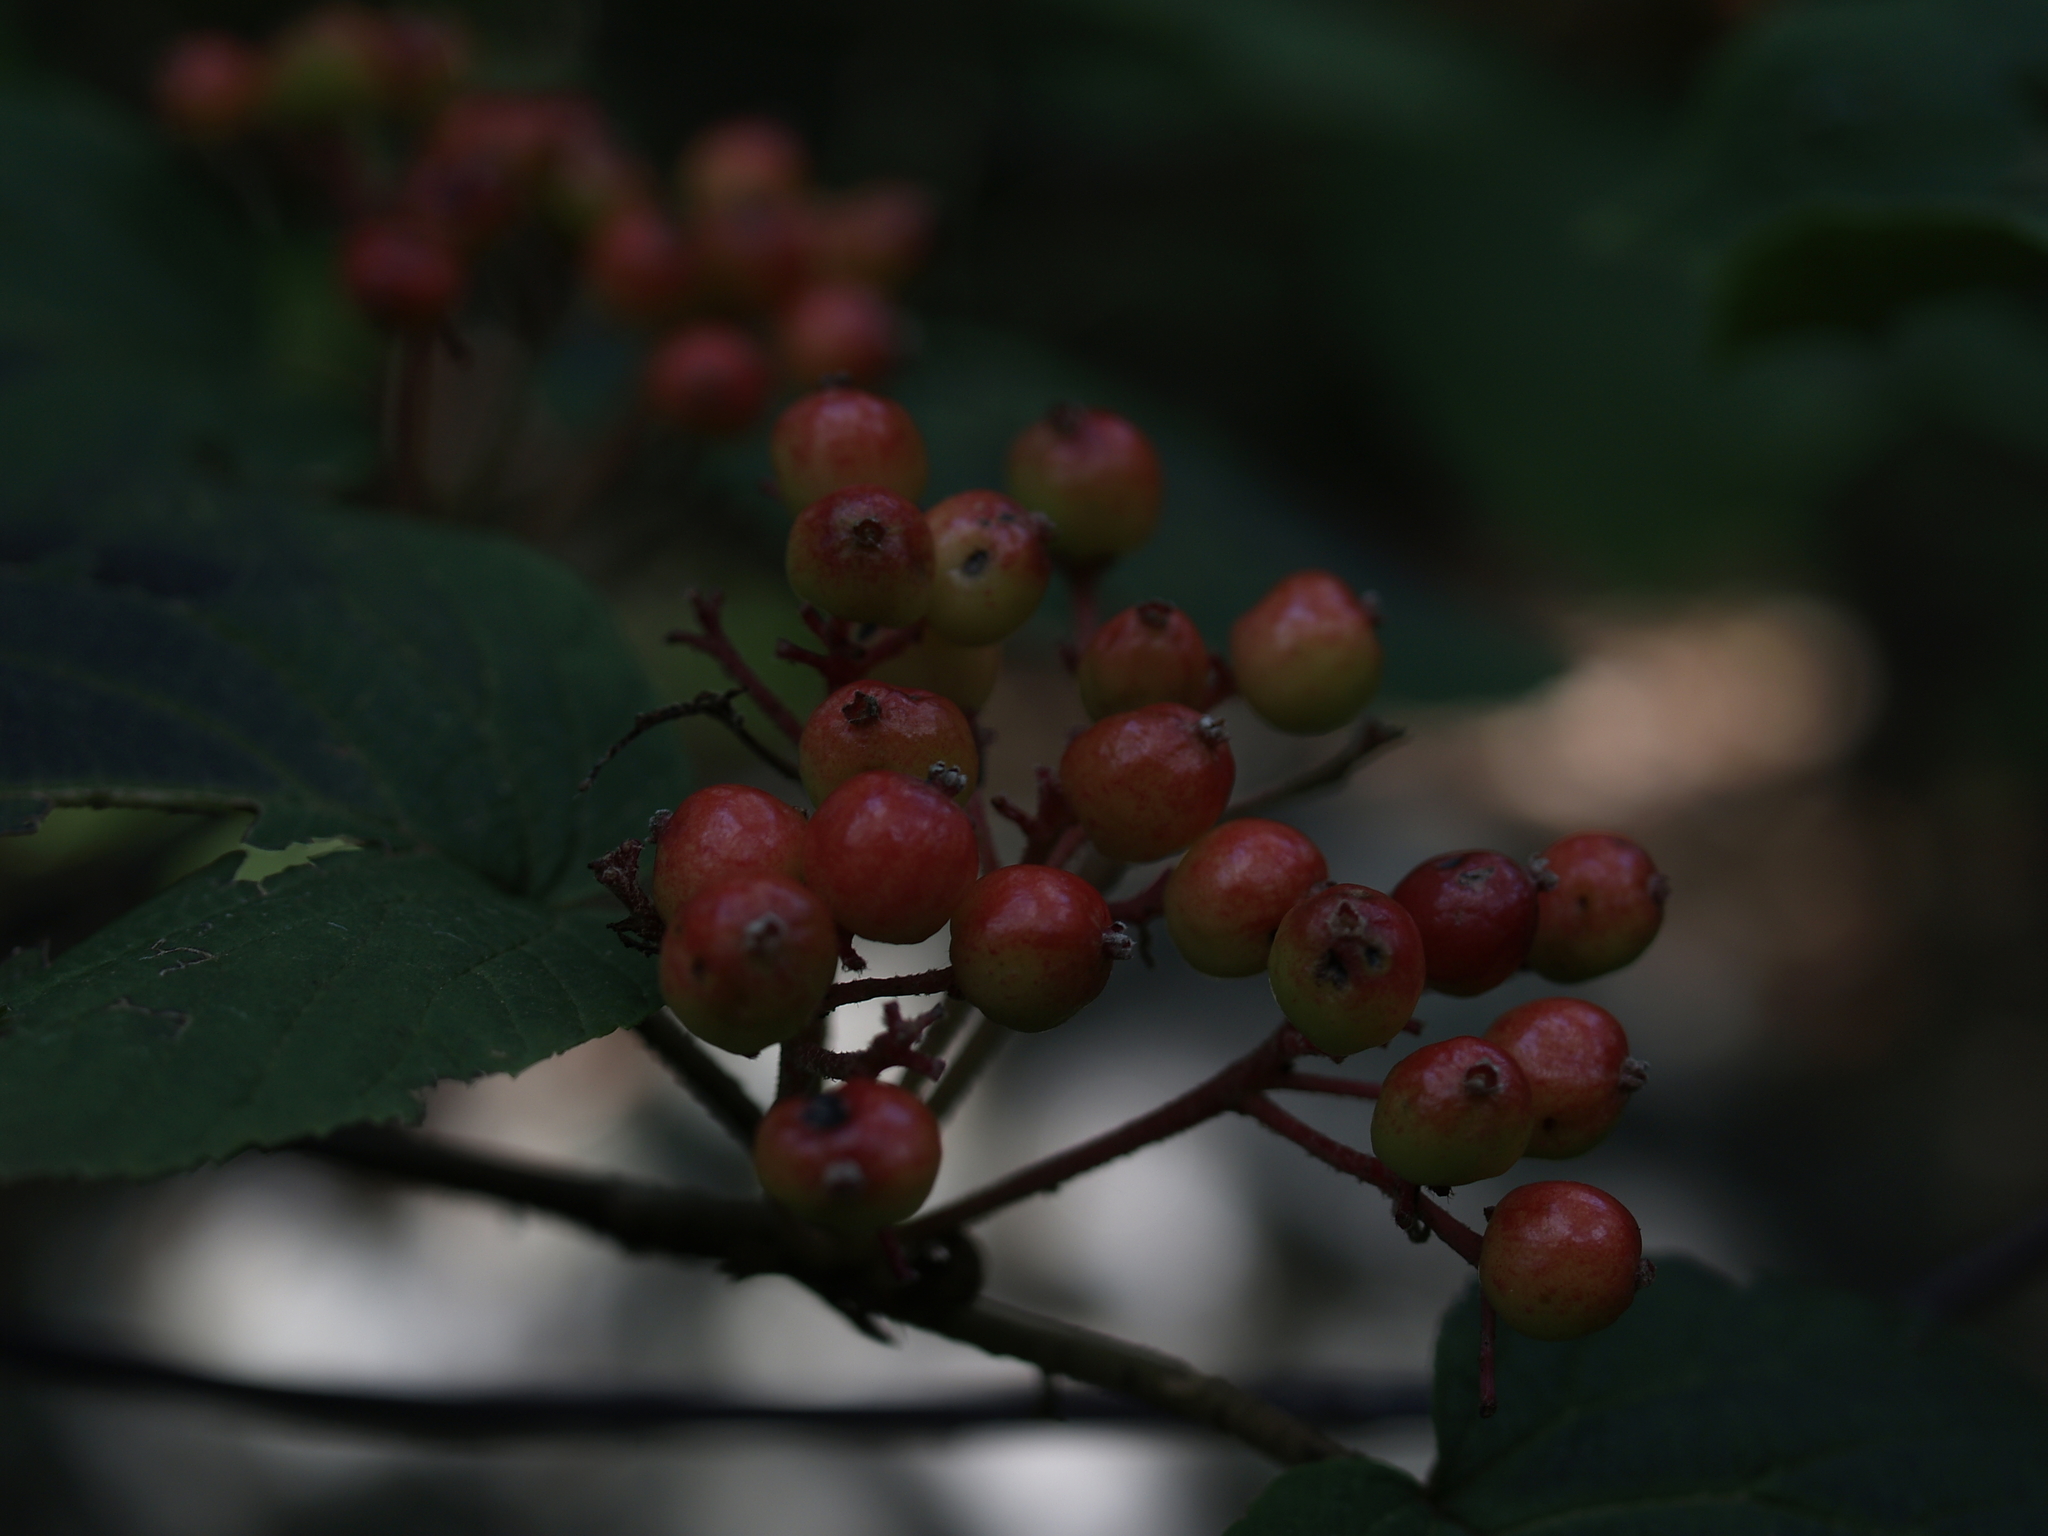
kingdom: Plantae
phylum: Tracheophyta
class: Magnoliopsida
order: Dipsacales
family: Viburnaceae
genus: Viburnum
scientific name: Viburnum lantanoides
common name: Hobblebush
